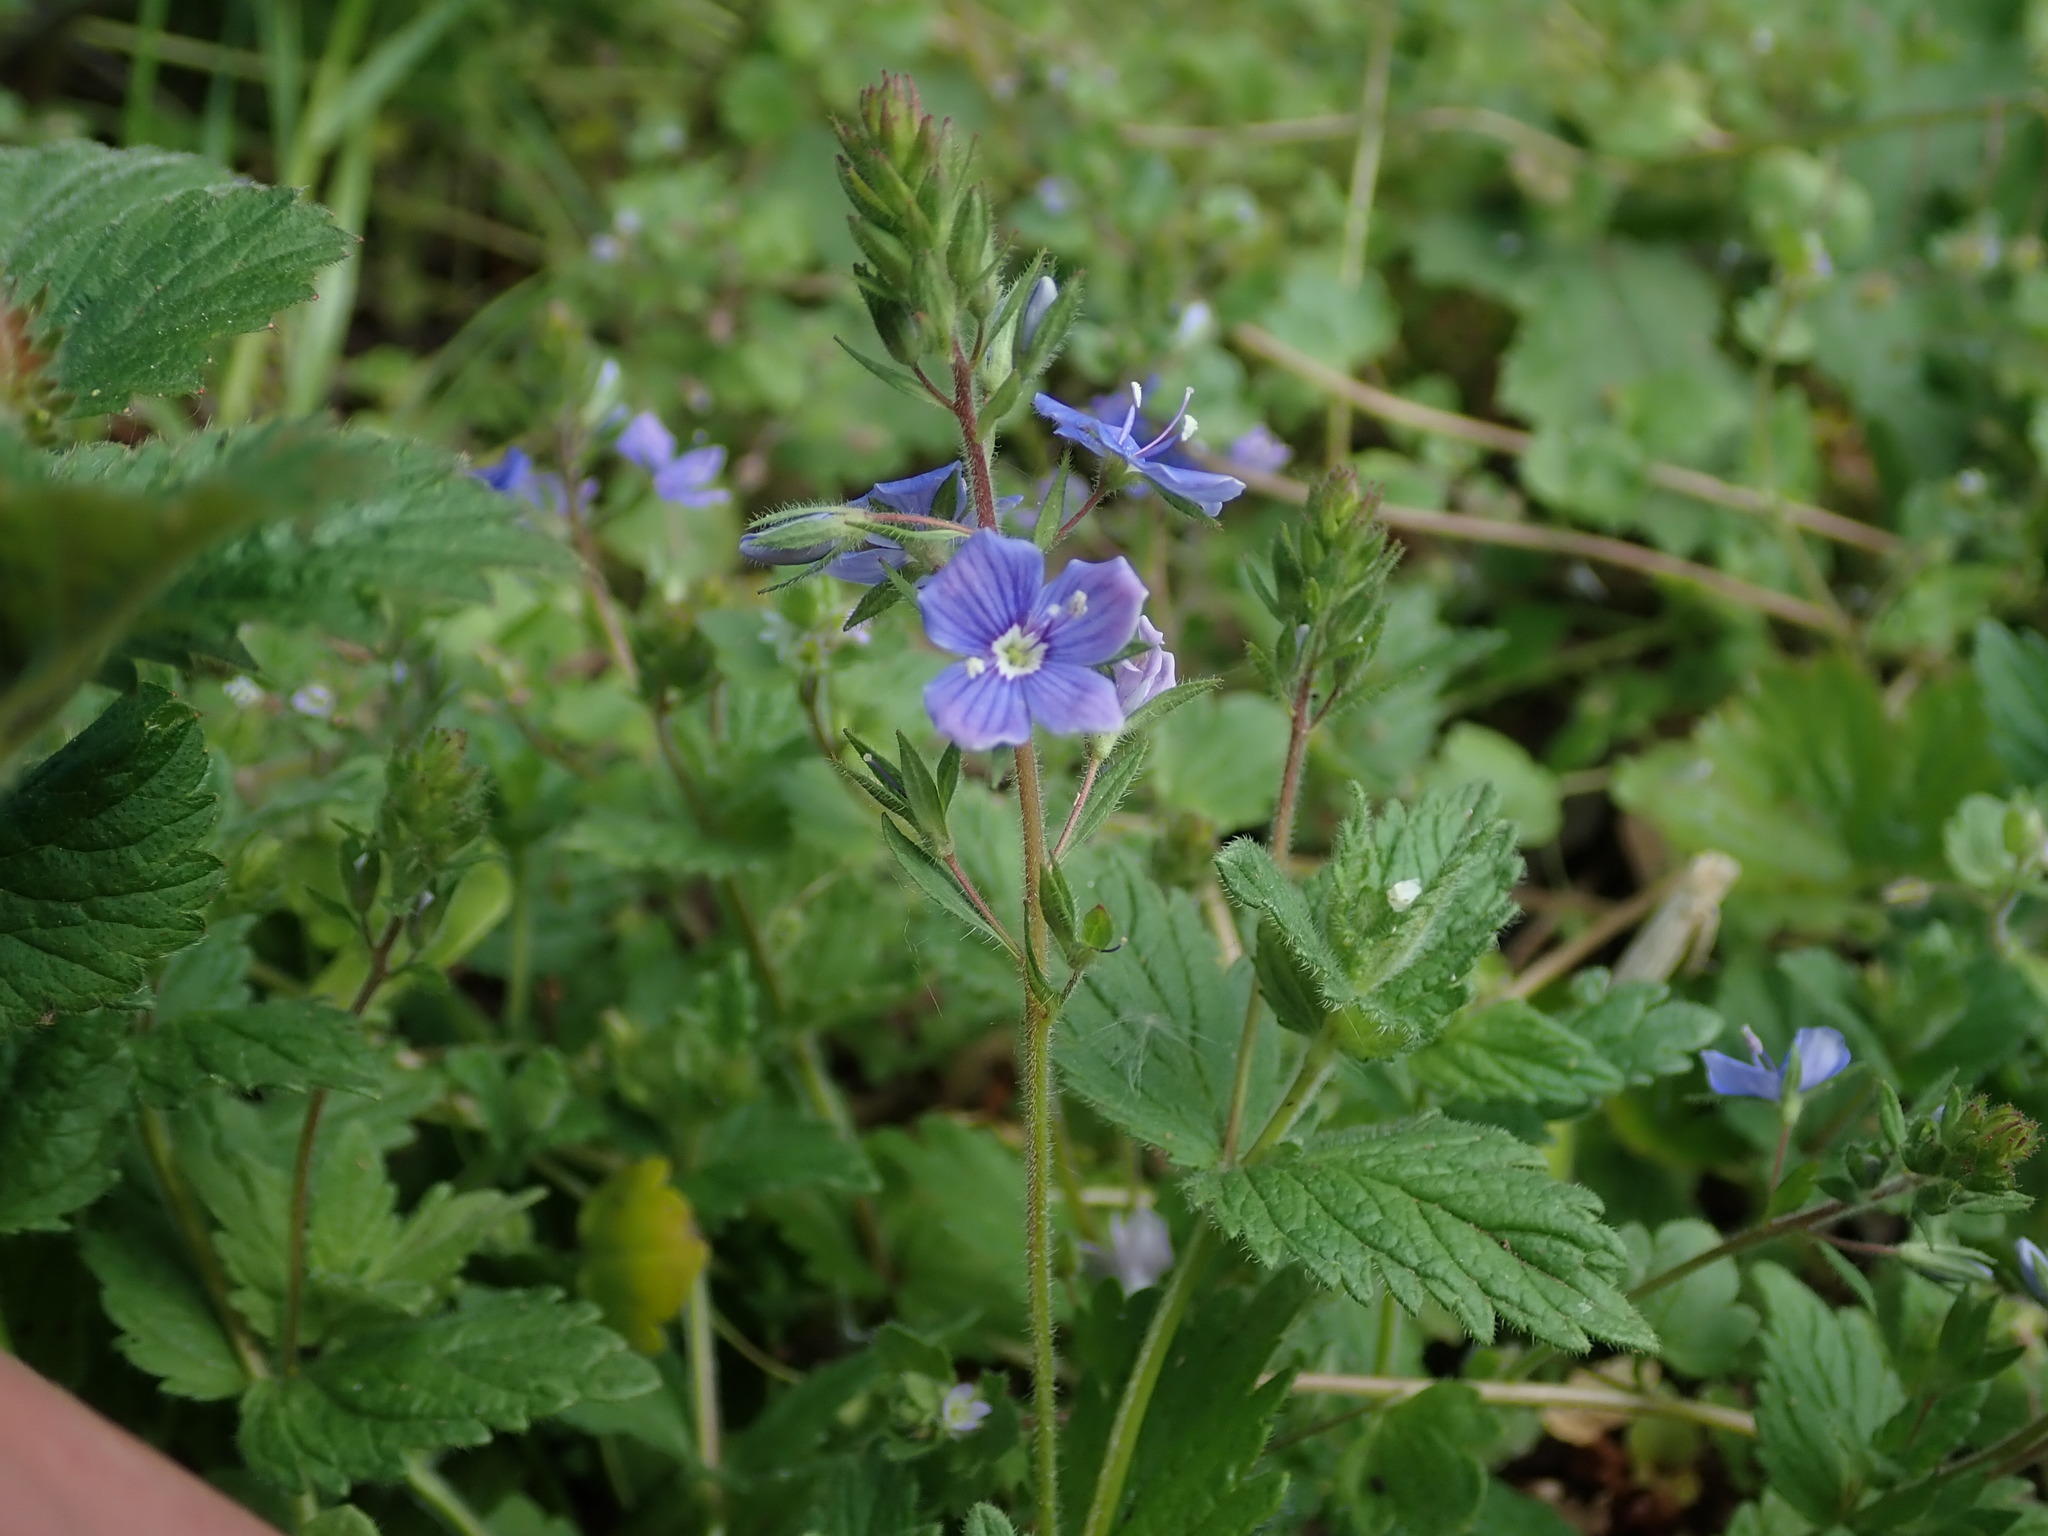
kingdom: Plantae
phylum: Tracheophyta
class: Magnoliopsida
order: Lamiales
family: Plantaginaceae
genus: Veronica
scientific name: Veronica chamaedrys
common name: Germander speedwell
